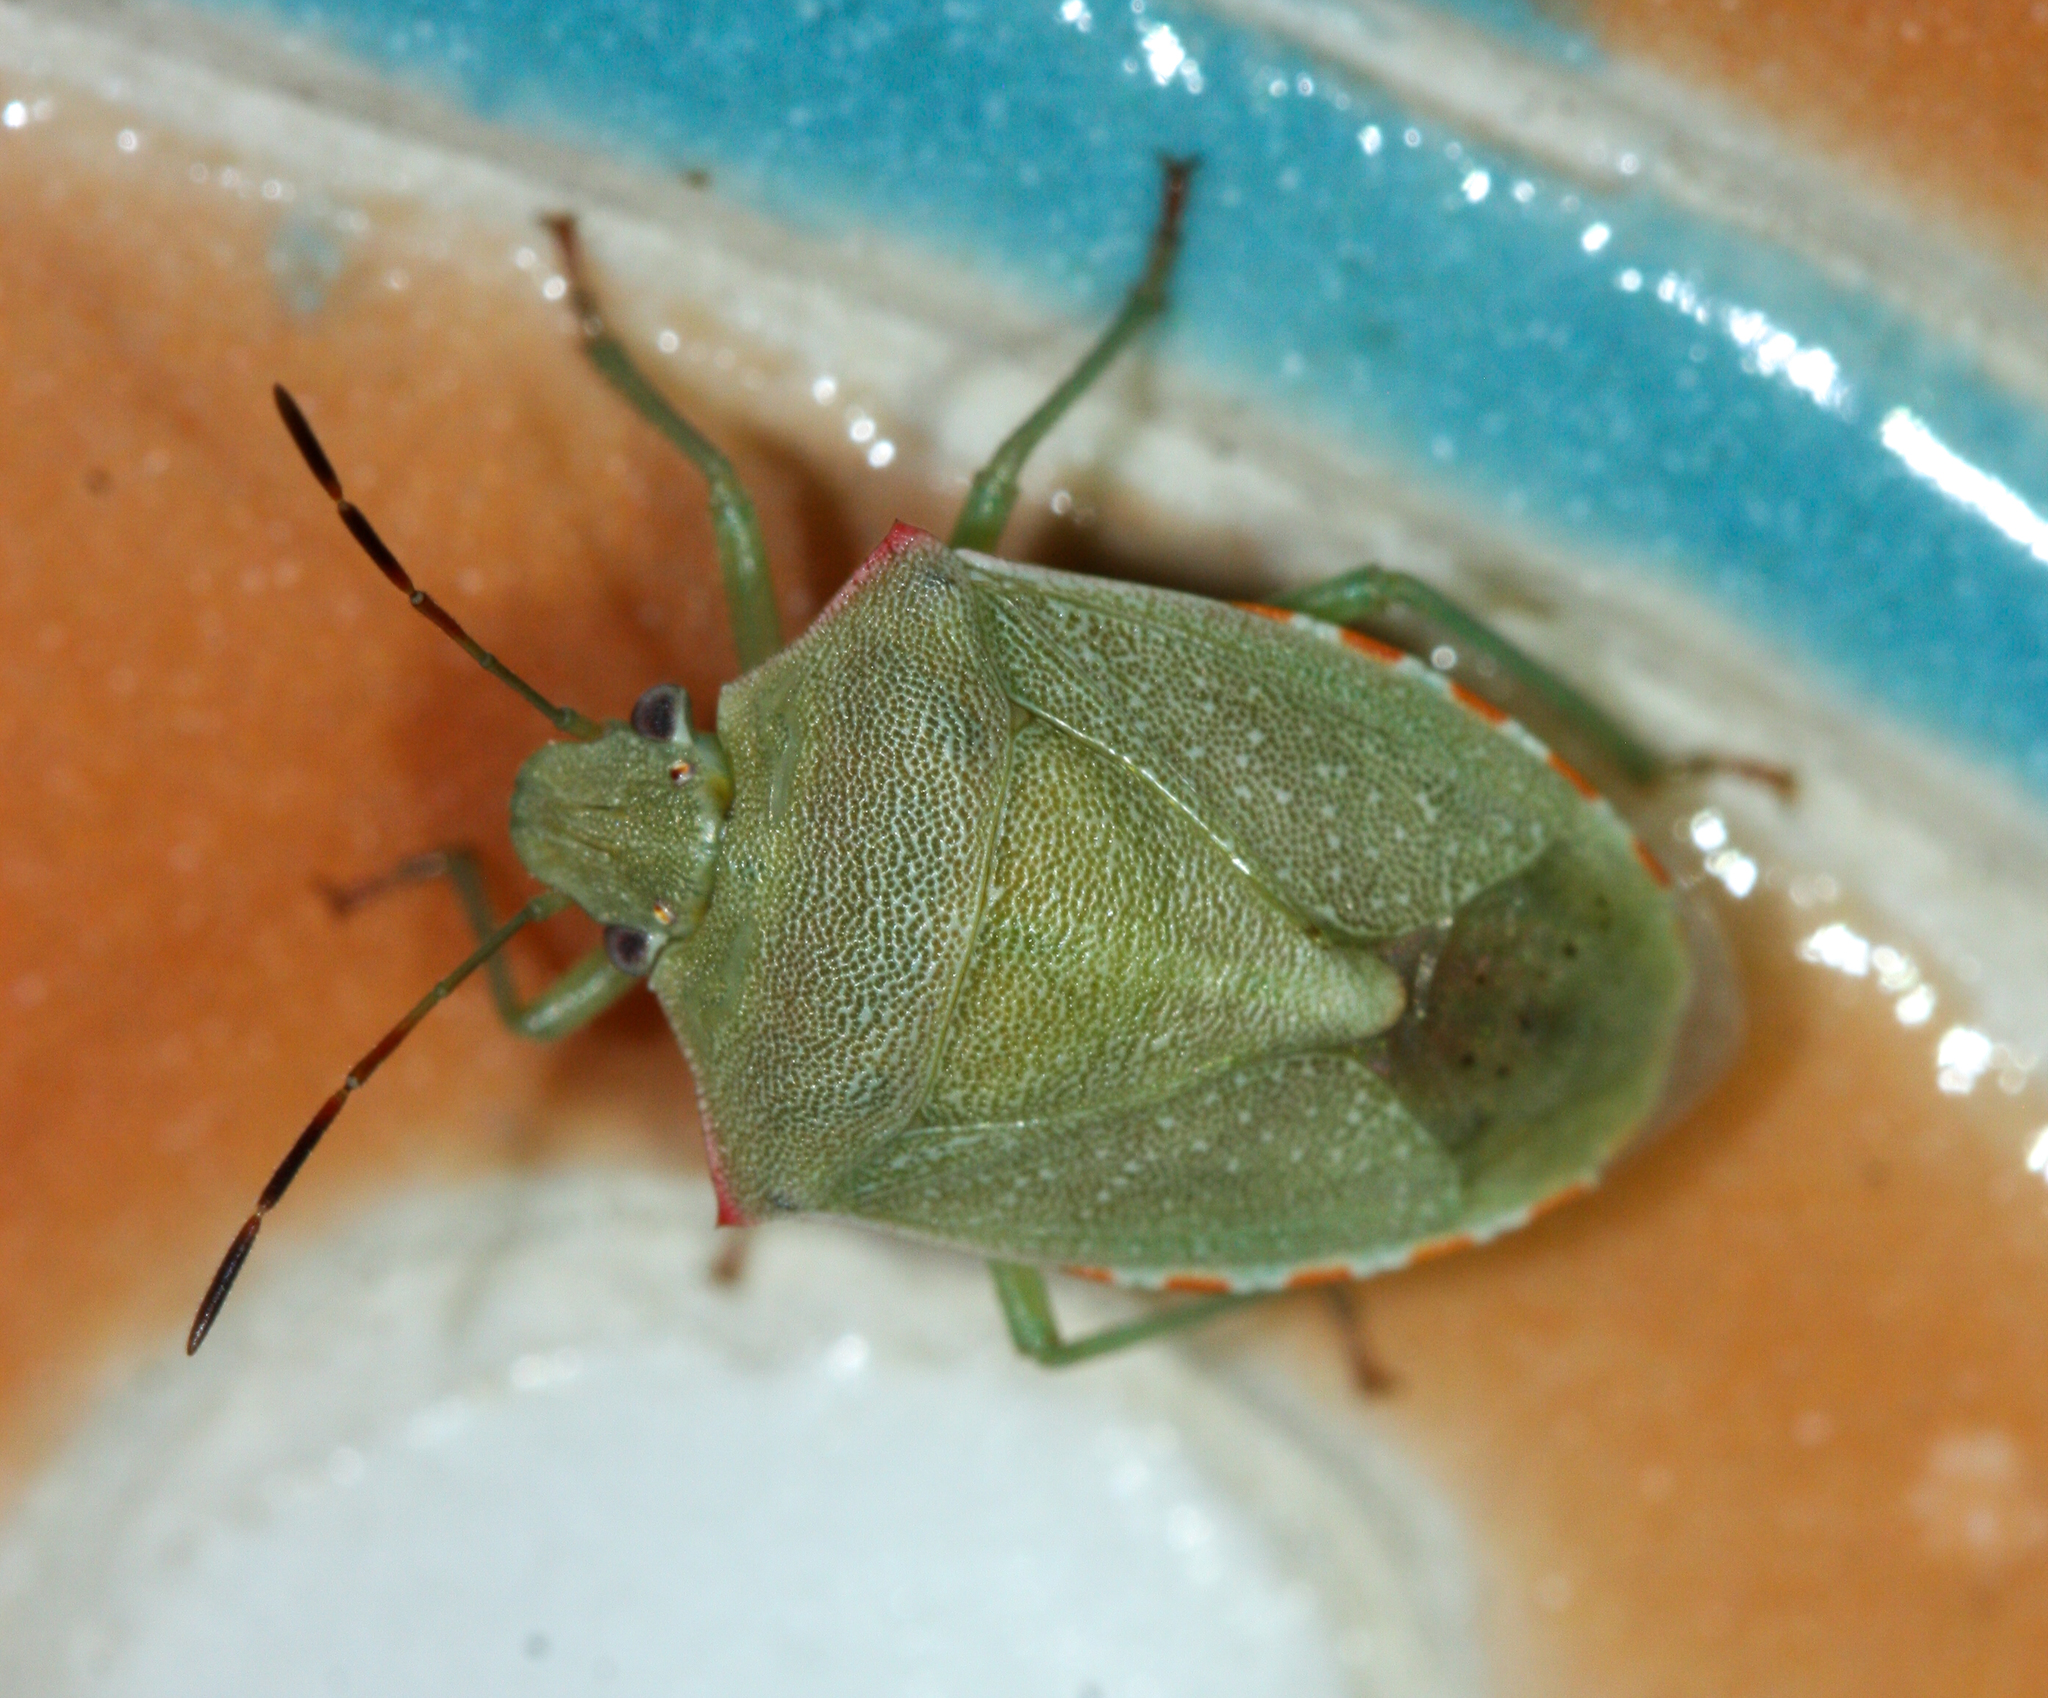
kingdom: Animalia
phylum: Arthropoda
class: Insecta
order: Hemiptera
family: Pentatomidae
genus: Thyanta
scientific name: Thyanta accerra
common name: Stink bug
